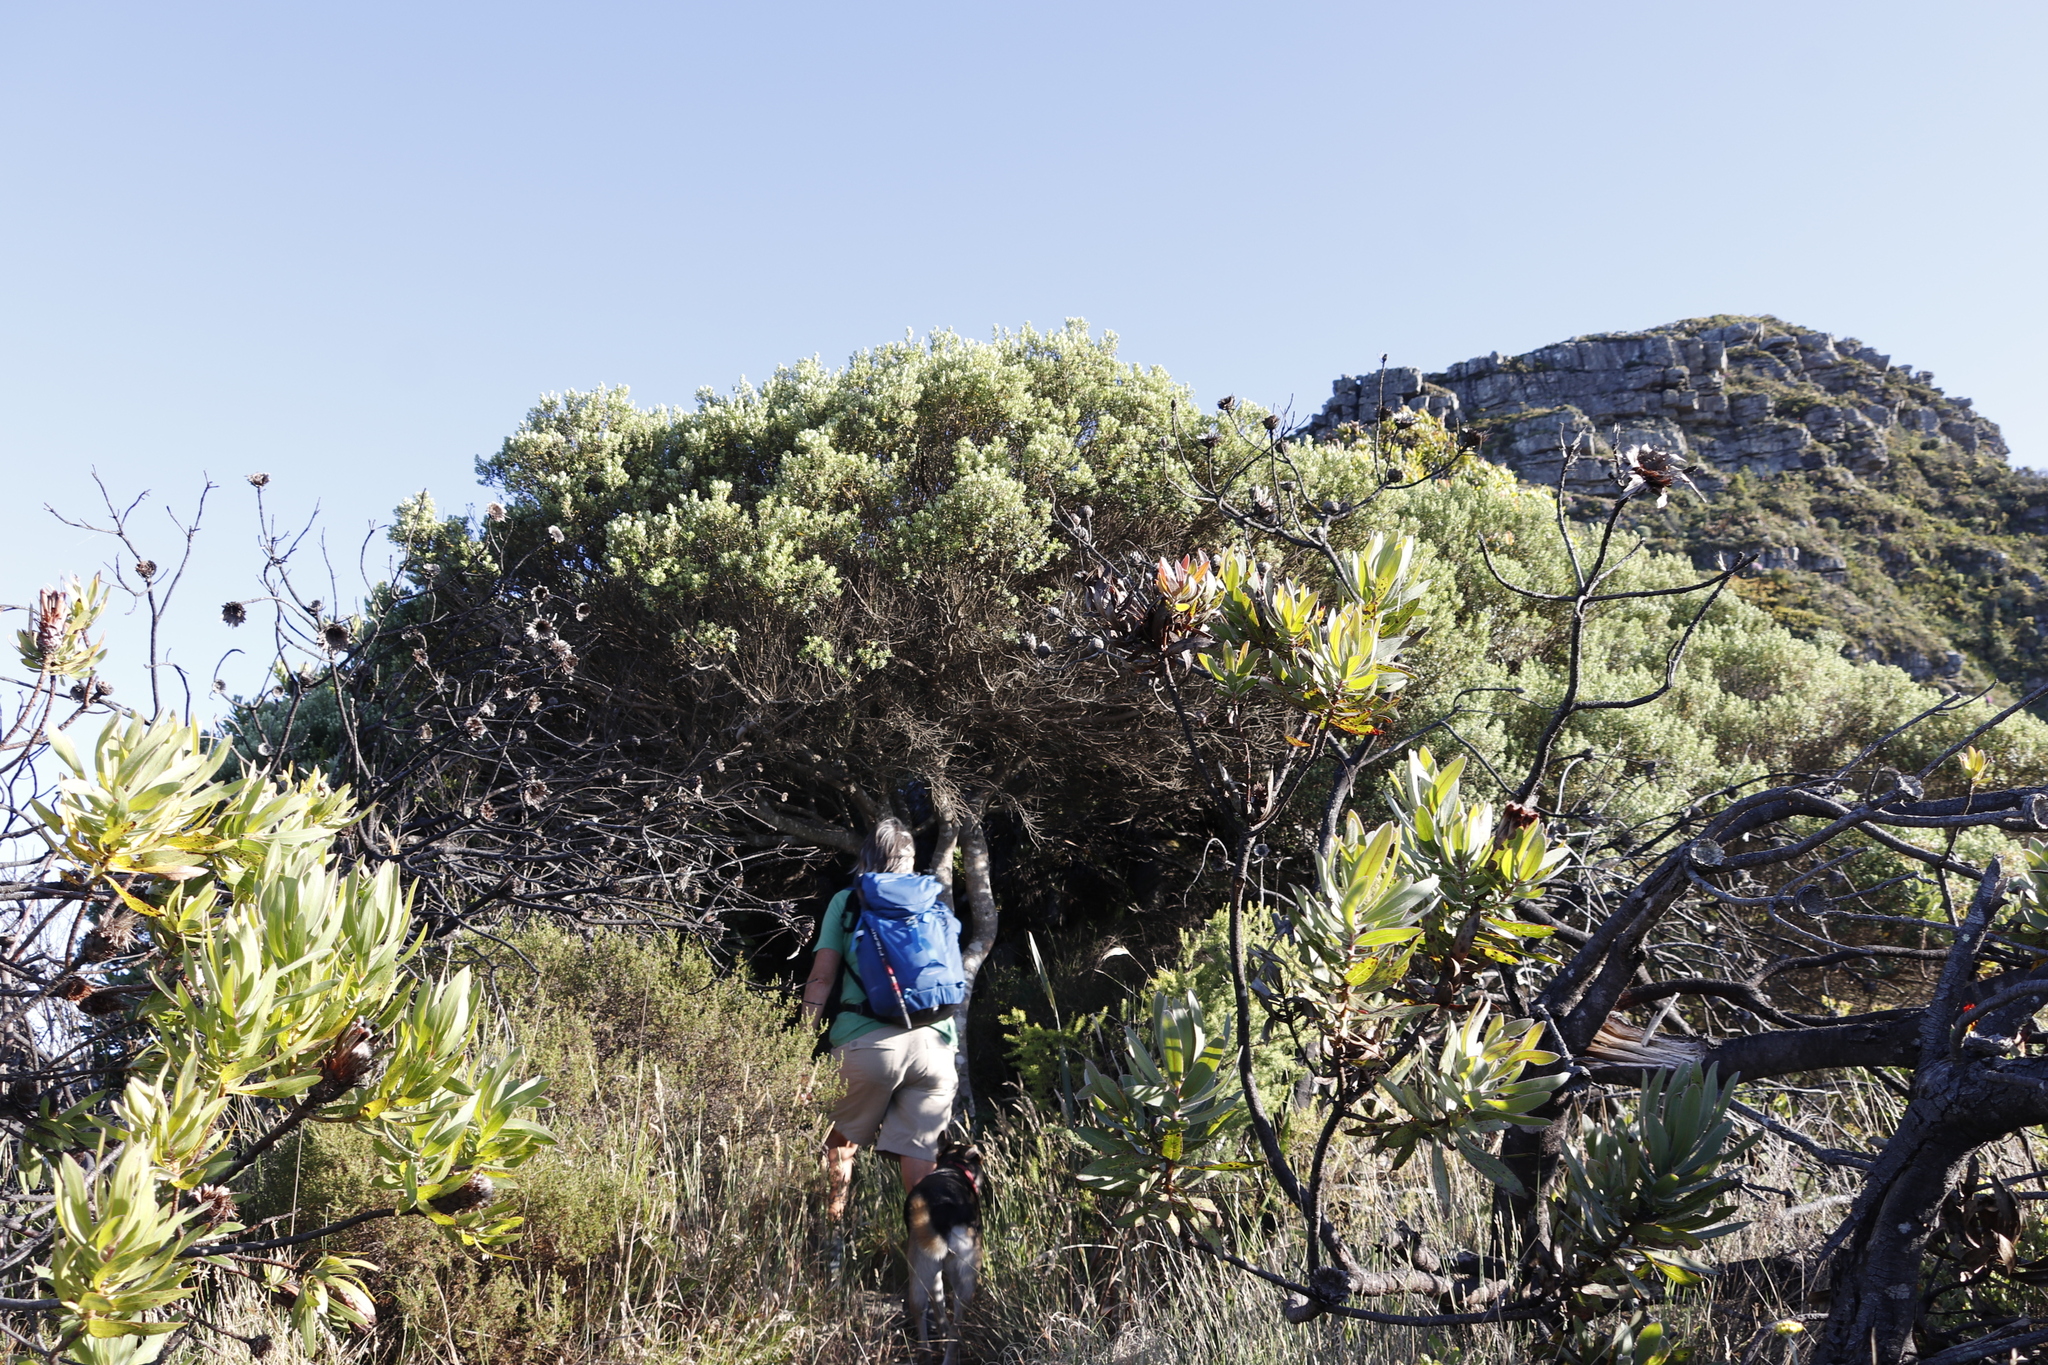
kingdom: Plantae
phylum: Tracheophyta
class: Magnoliopsida
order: Rosales
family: Rhamnaceae
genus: Phylica
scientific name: Phylica buxifolia
